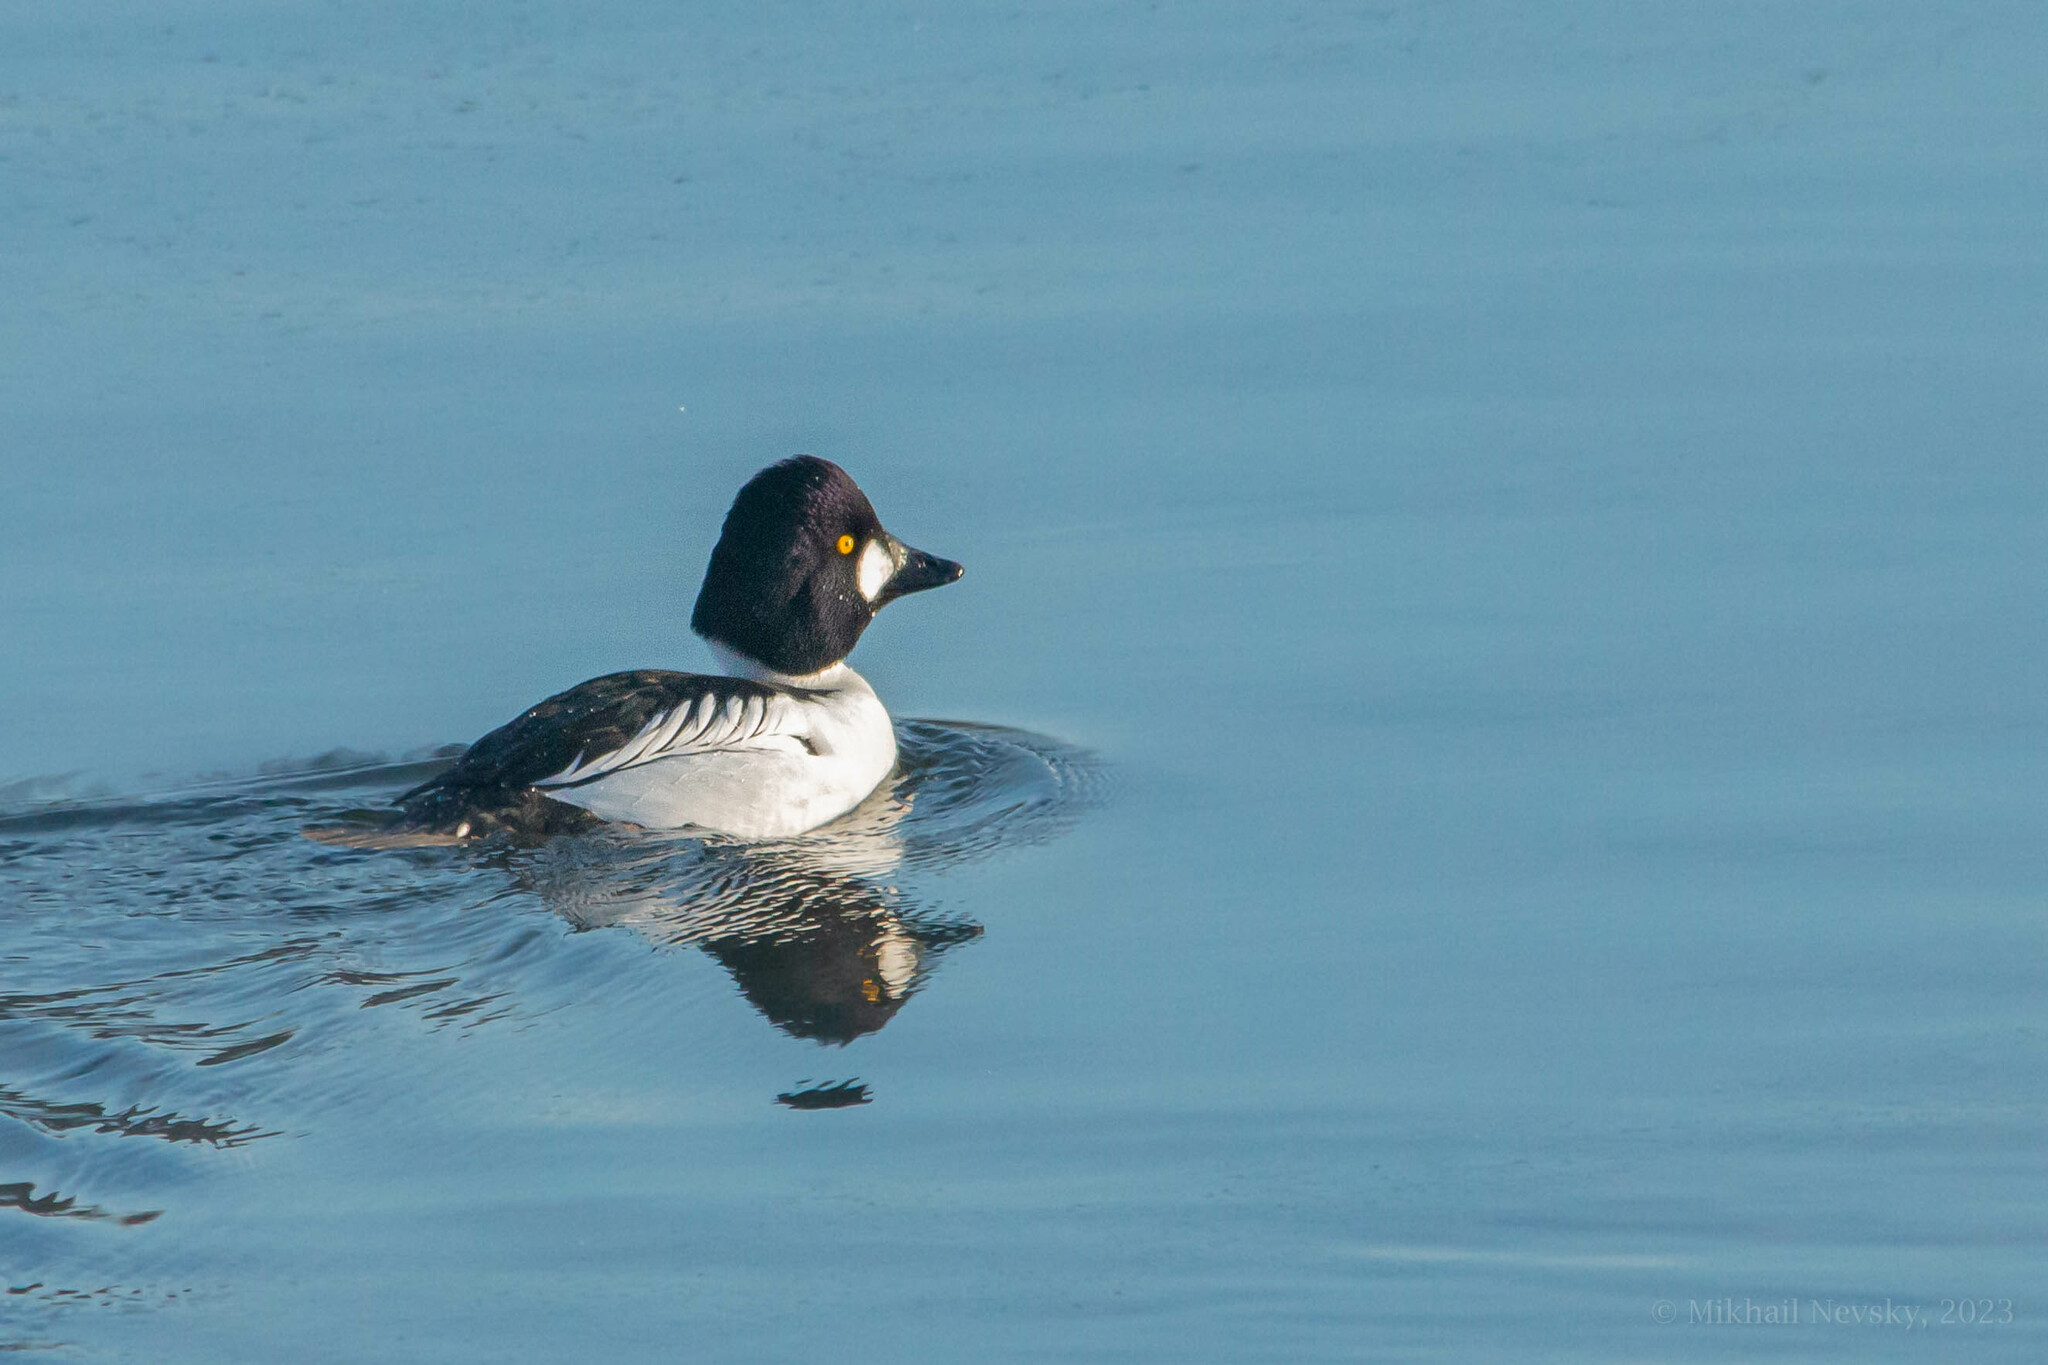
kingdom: Animalia
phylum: Chordata
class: Aves
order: Anseriformes
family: Anatidae
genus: Bucephala
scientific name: Bucephala clangula
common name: Common goldeneye
